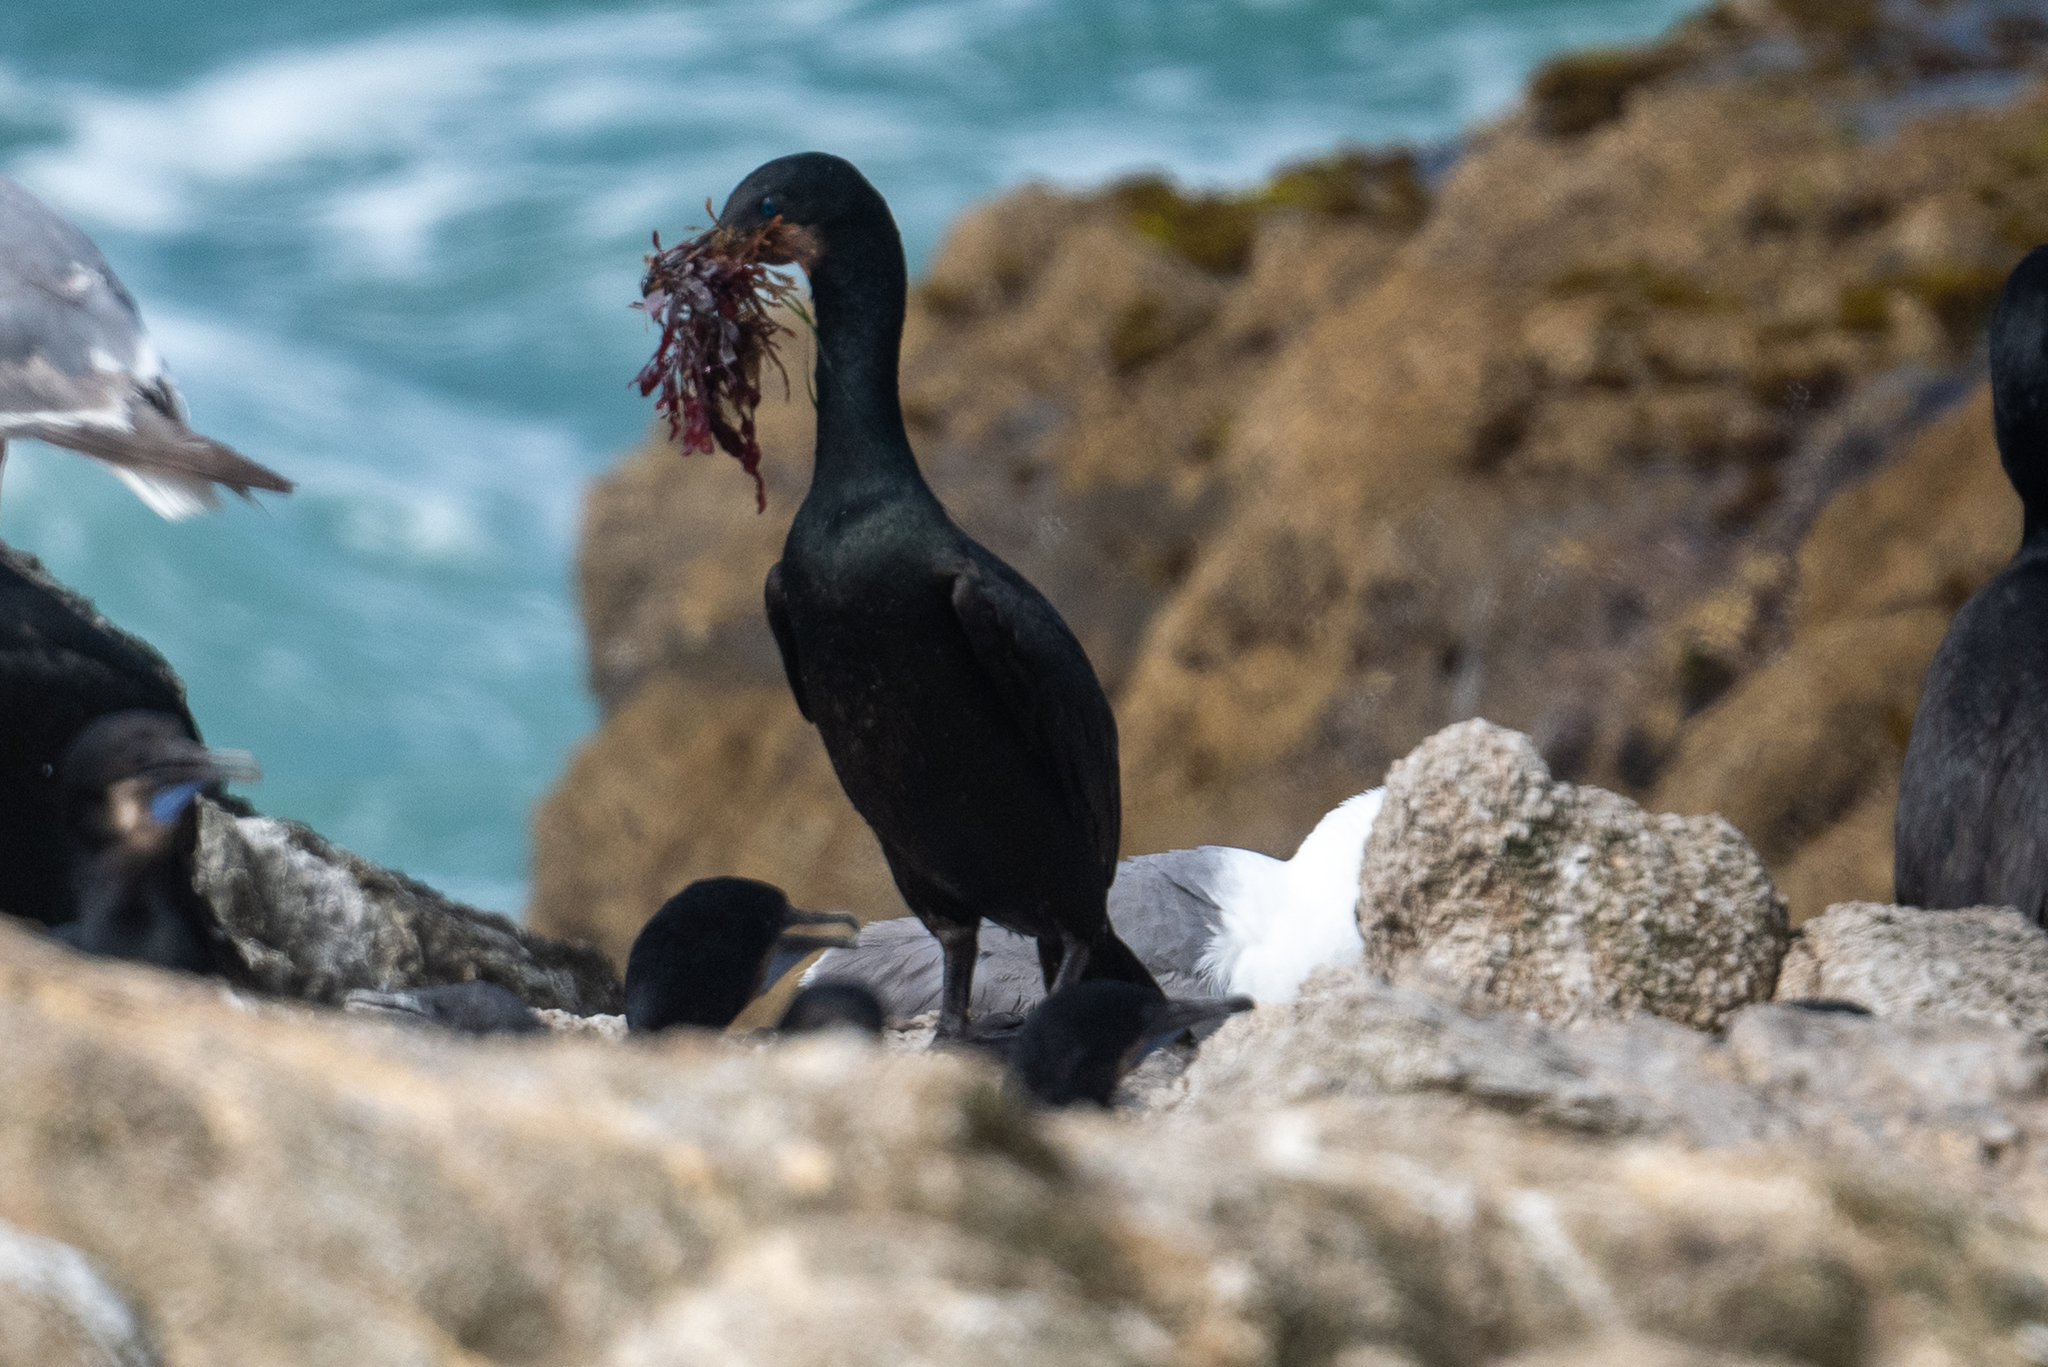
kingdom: Animalia
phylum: Chordata
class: Aves
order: Suliformes
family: Phalacrocoracidae
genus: Urile
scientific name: Urile penicillatus
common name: Brandt's cormorant
